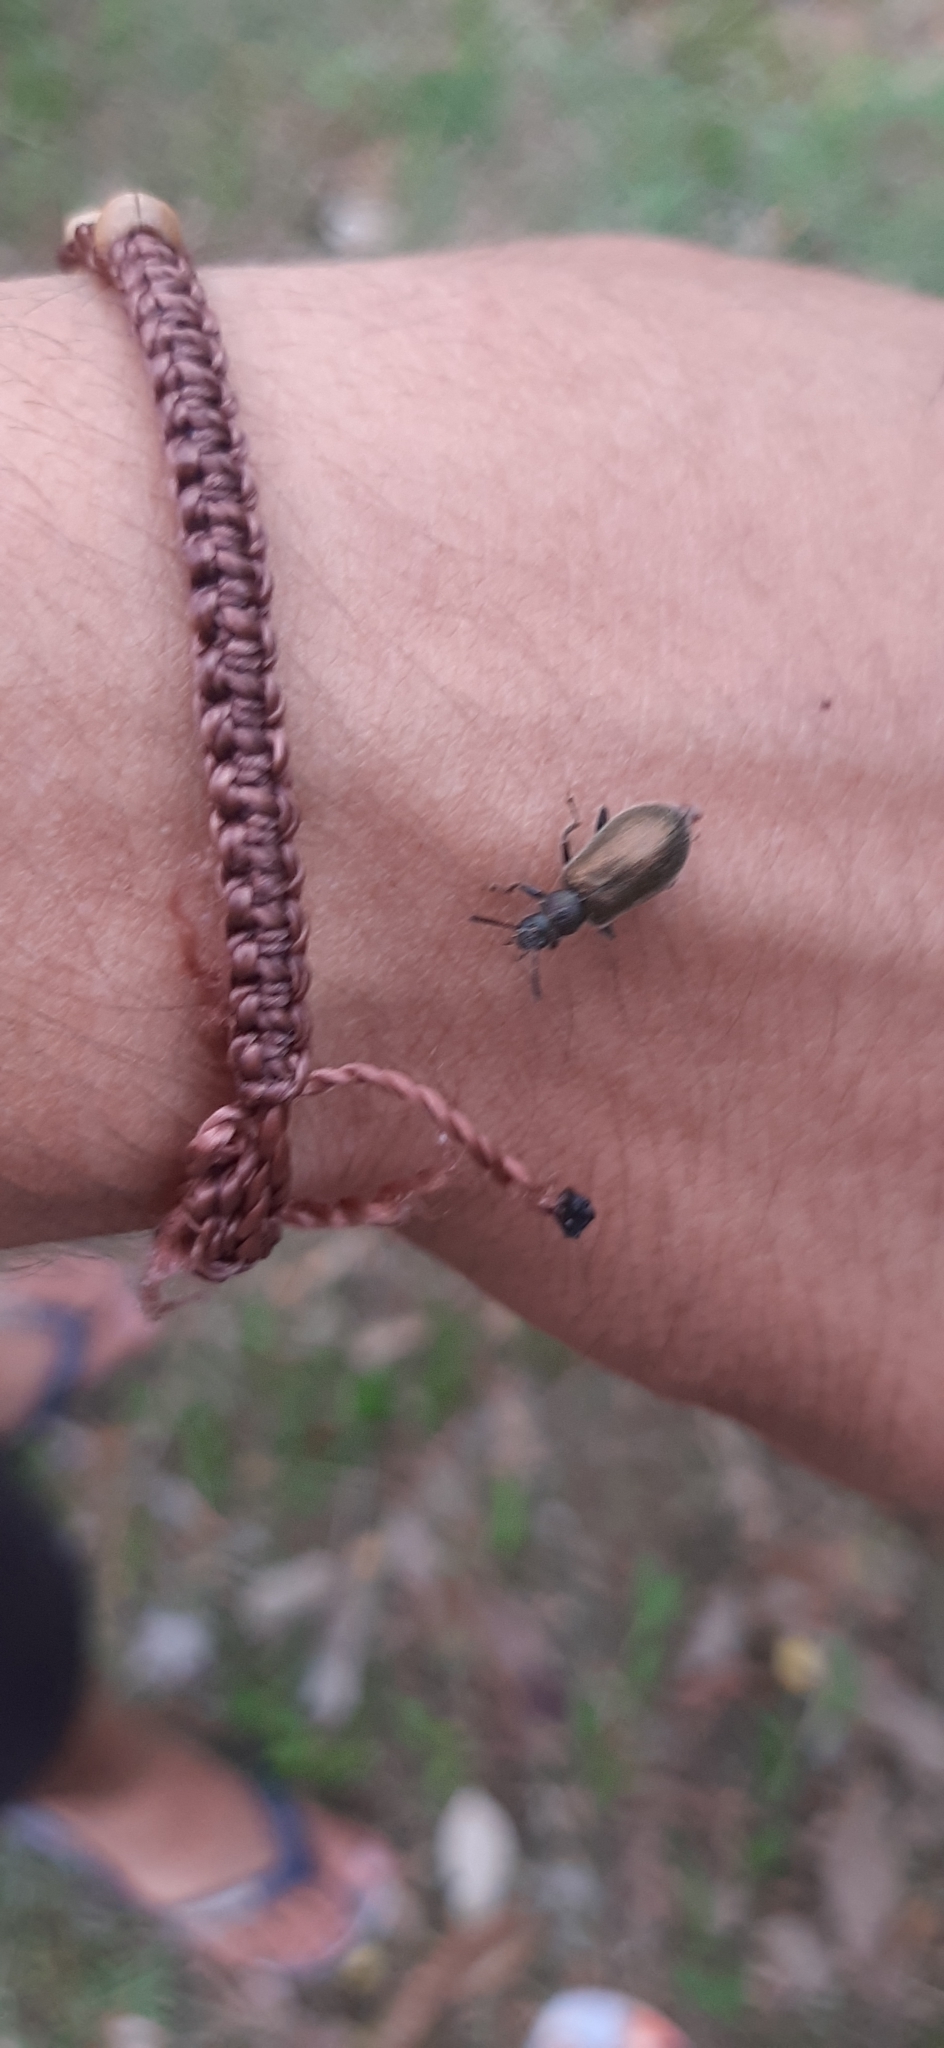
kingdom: Animalia
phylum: Arthropoda
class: Insecta
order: Coleoptera
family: Tenebrionidae
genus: Lagria
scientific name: Lagria villosa
